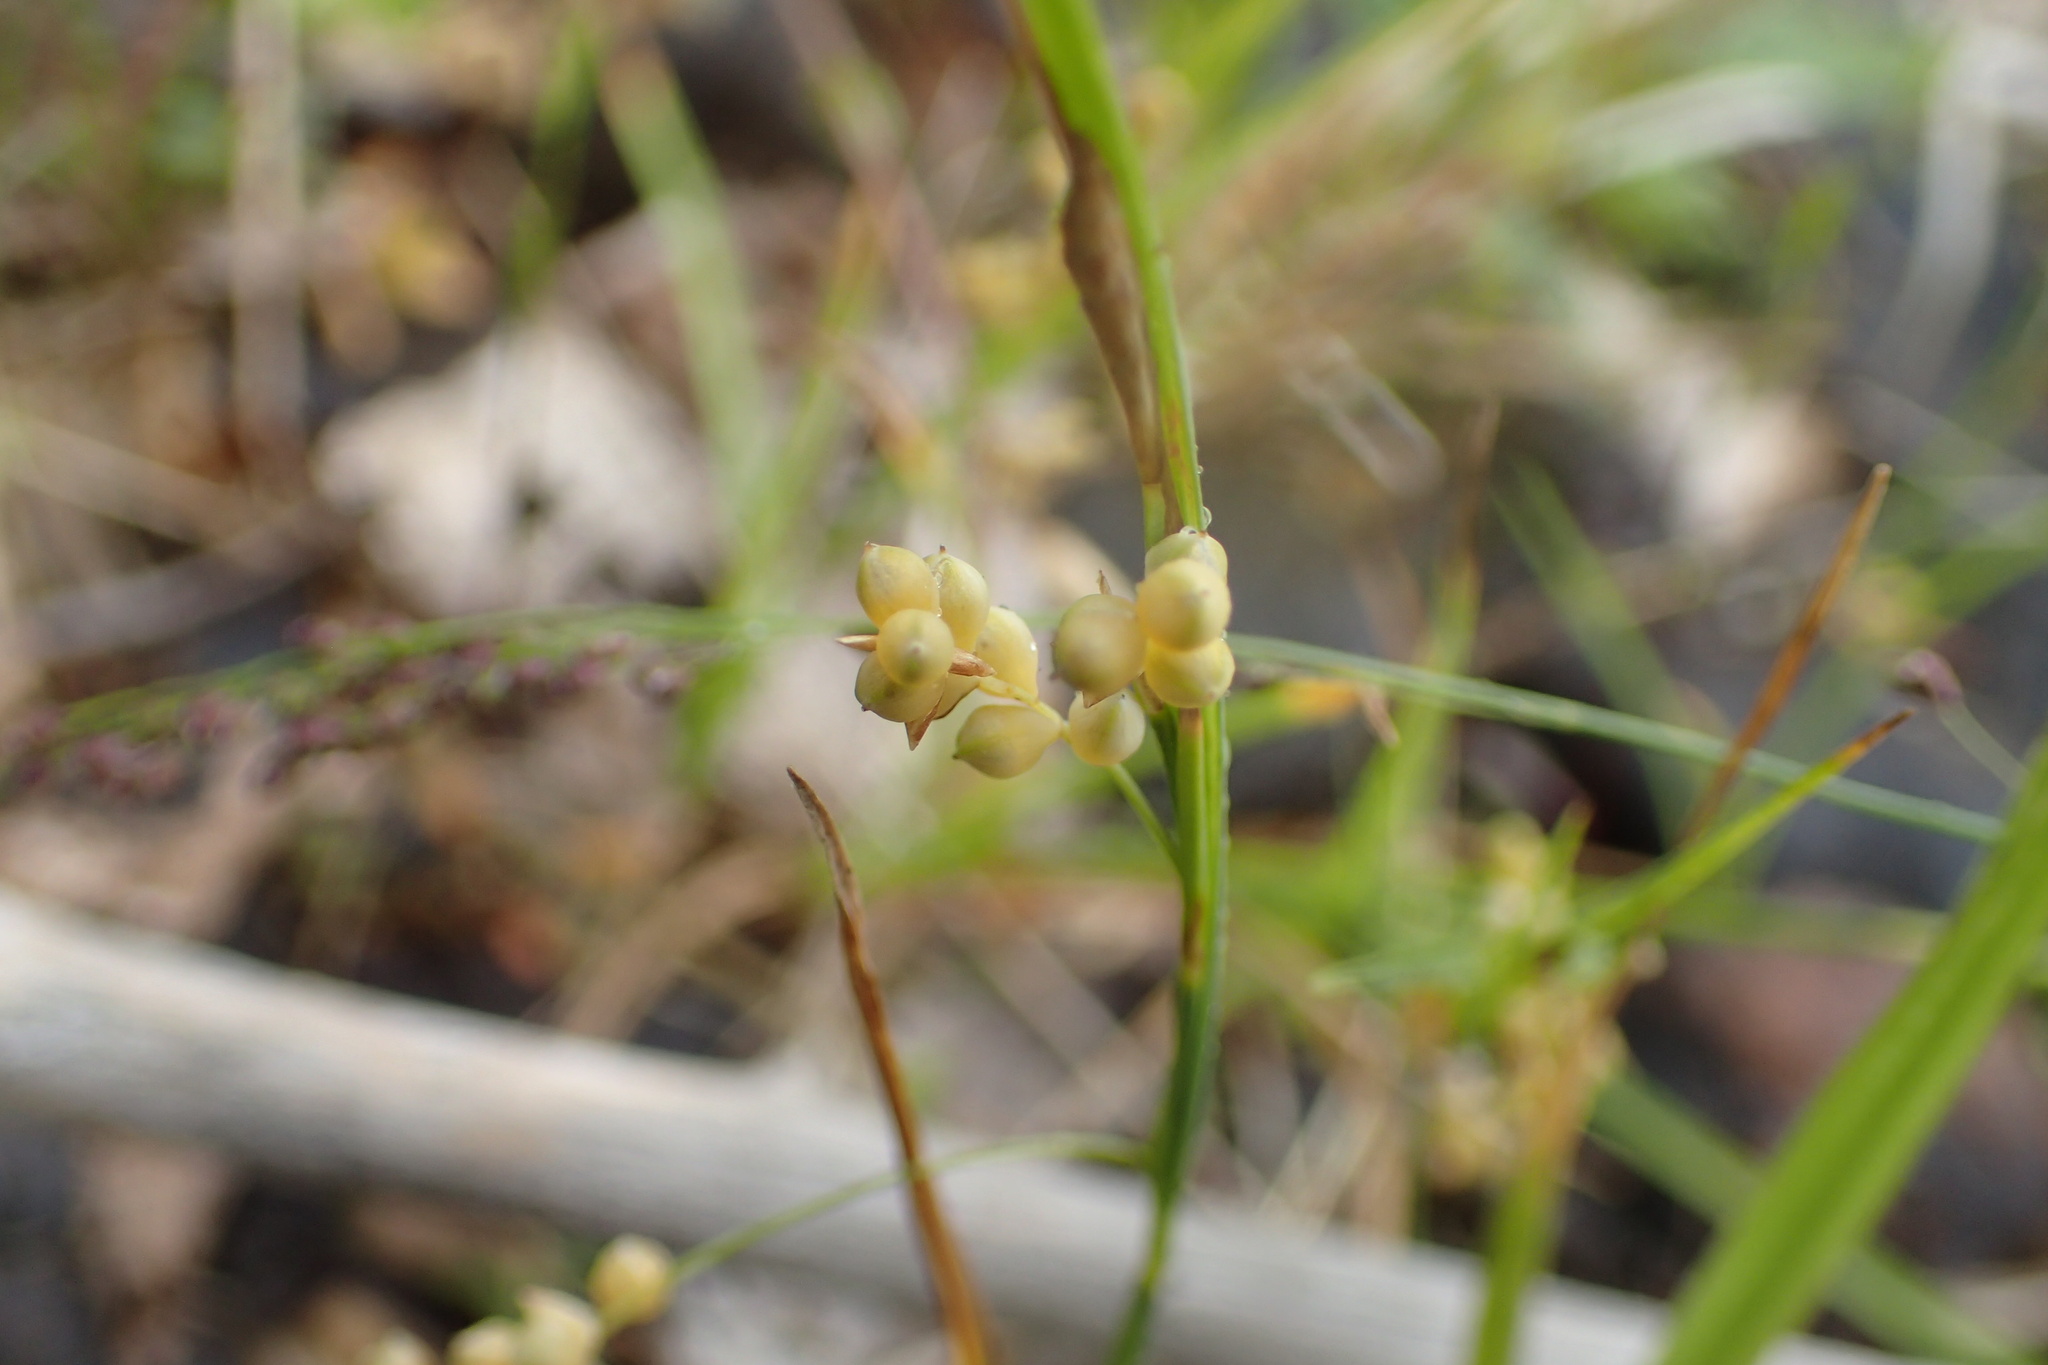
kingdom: Plantae
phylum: Tracheophyta
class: Liliopsida
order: Poales
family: Cyperaceae
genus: Carex
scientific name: Carex aurea
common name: Golden sedge
